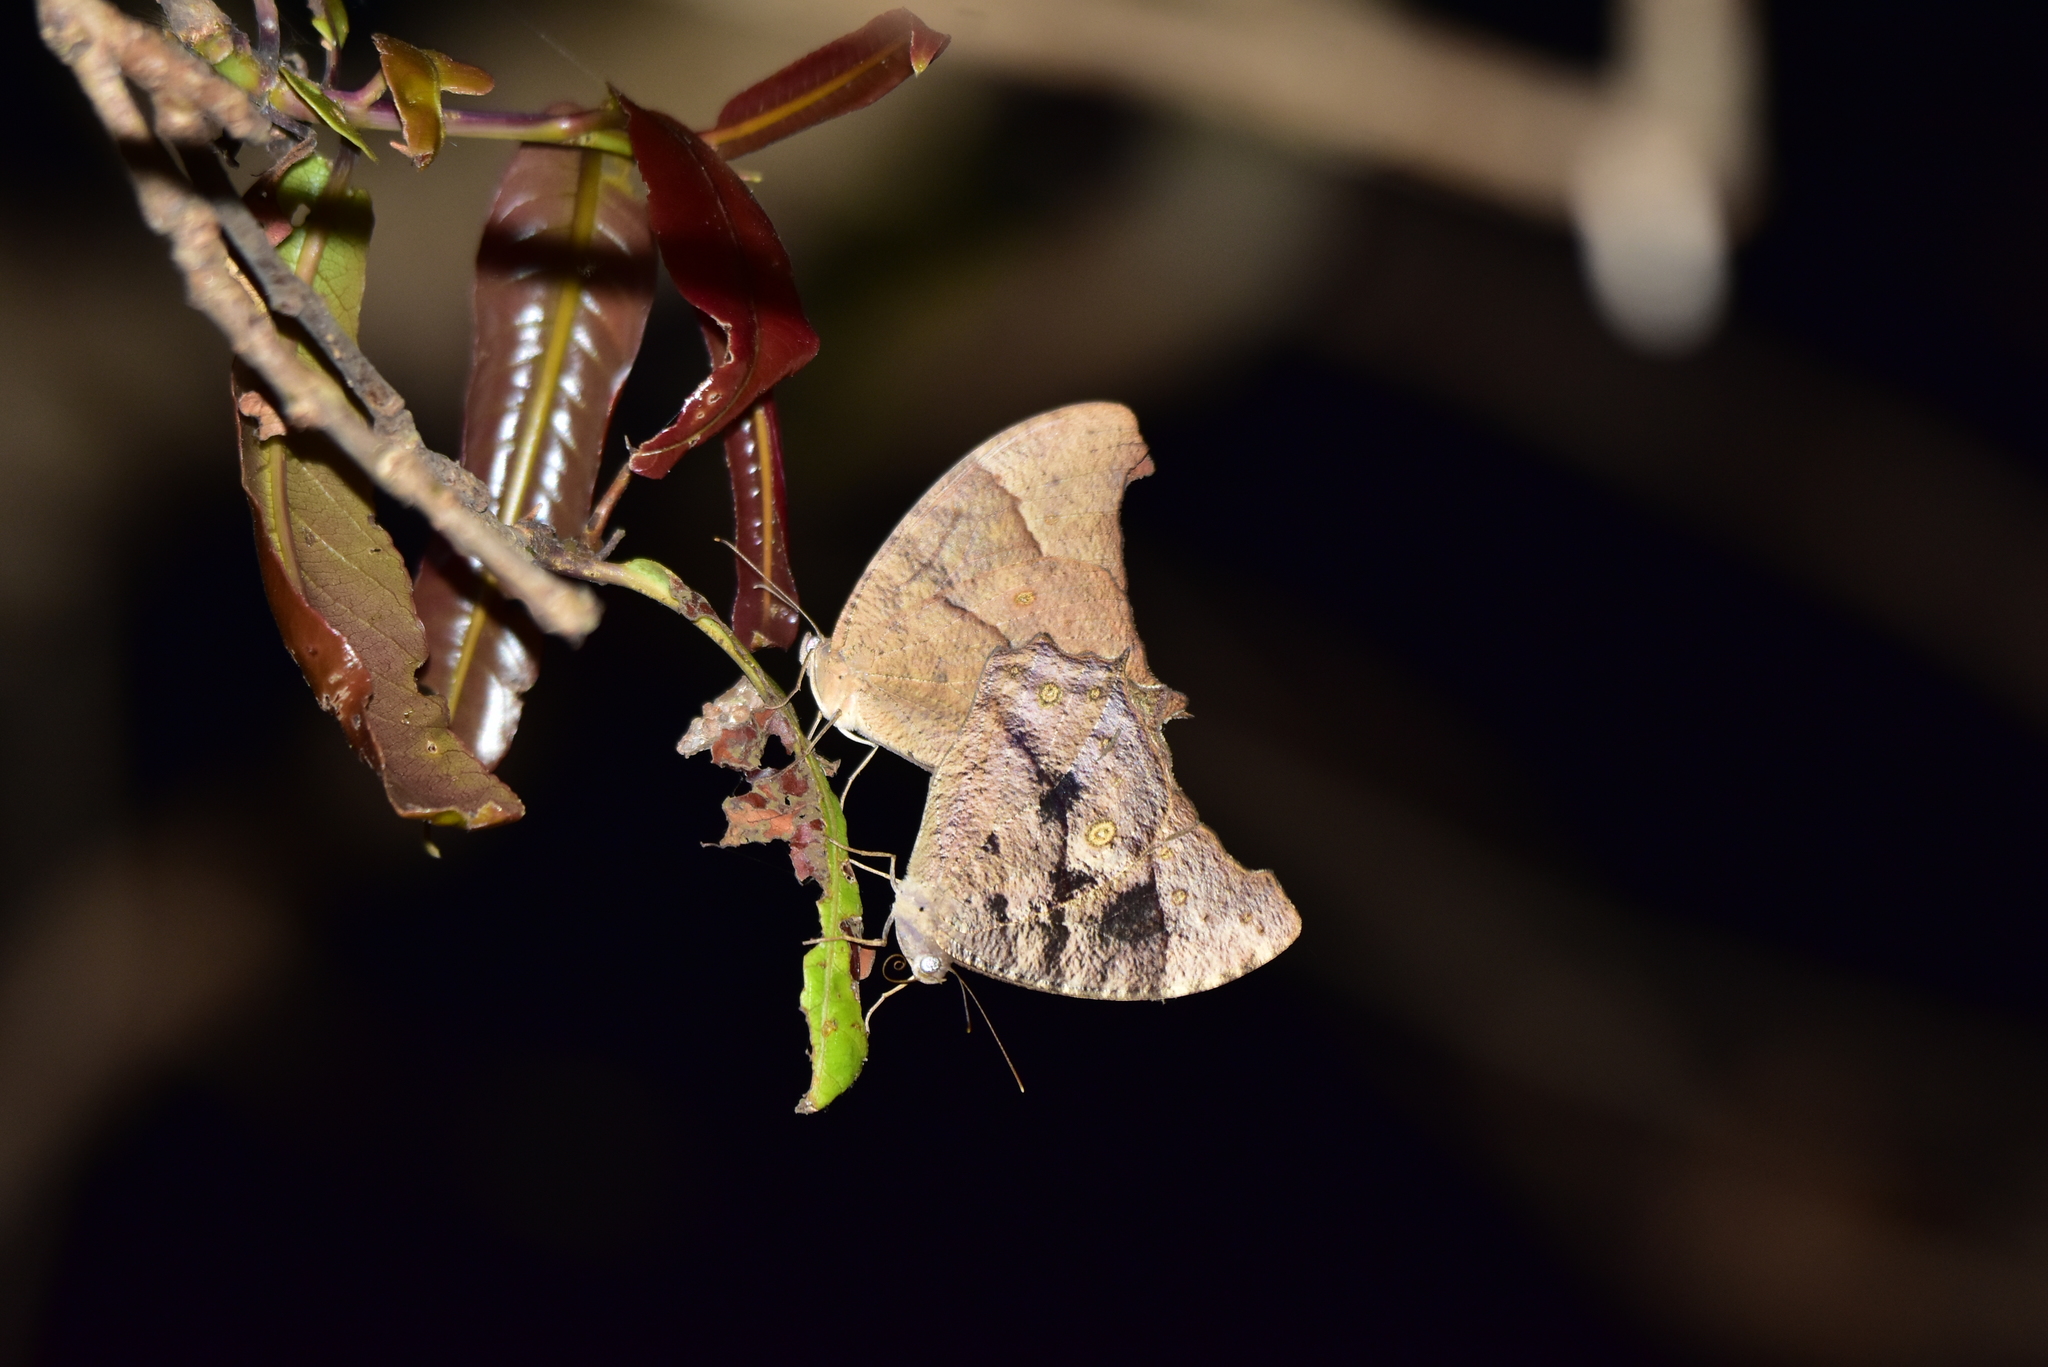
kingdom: Animalia
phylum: Arthropoda
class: Insecta
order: Lepidoptera
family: Nymphalidae
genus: Melanitis
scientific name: Melanitis leda
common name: Twilight brown
